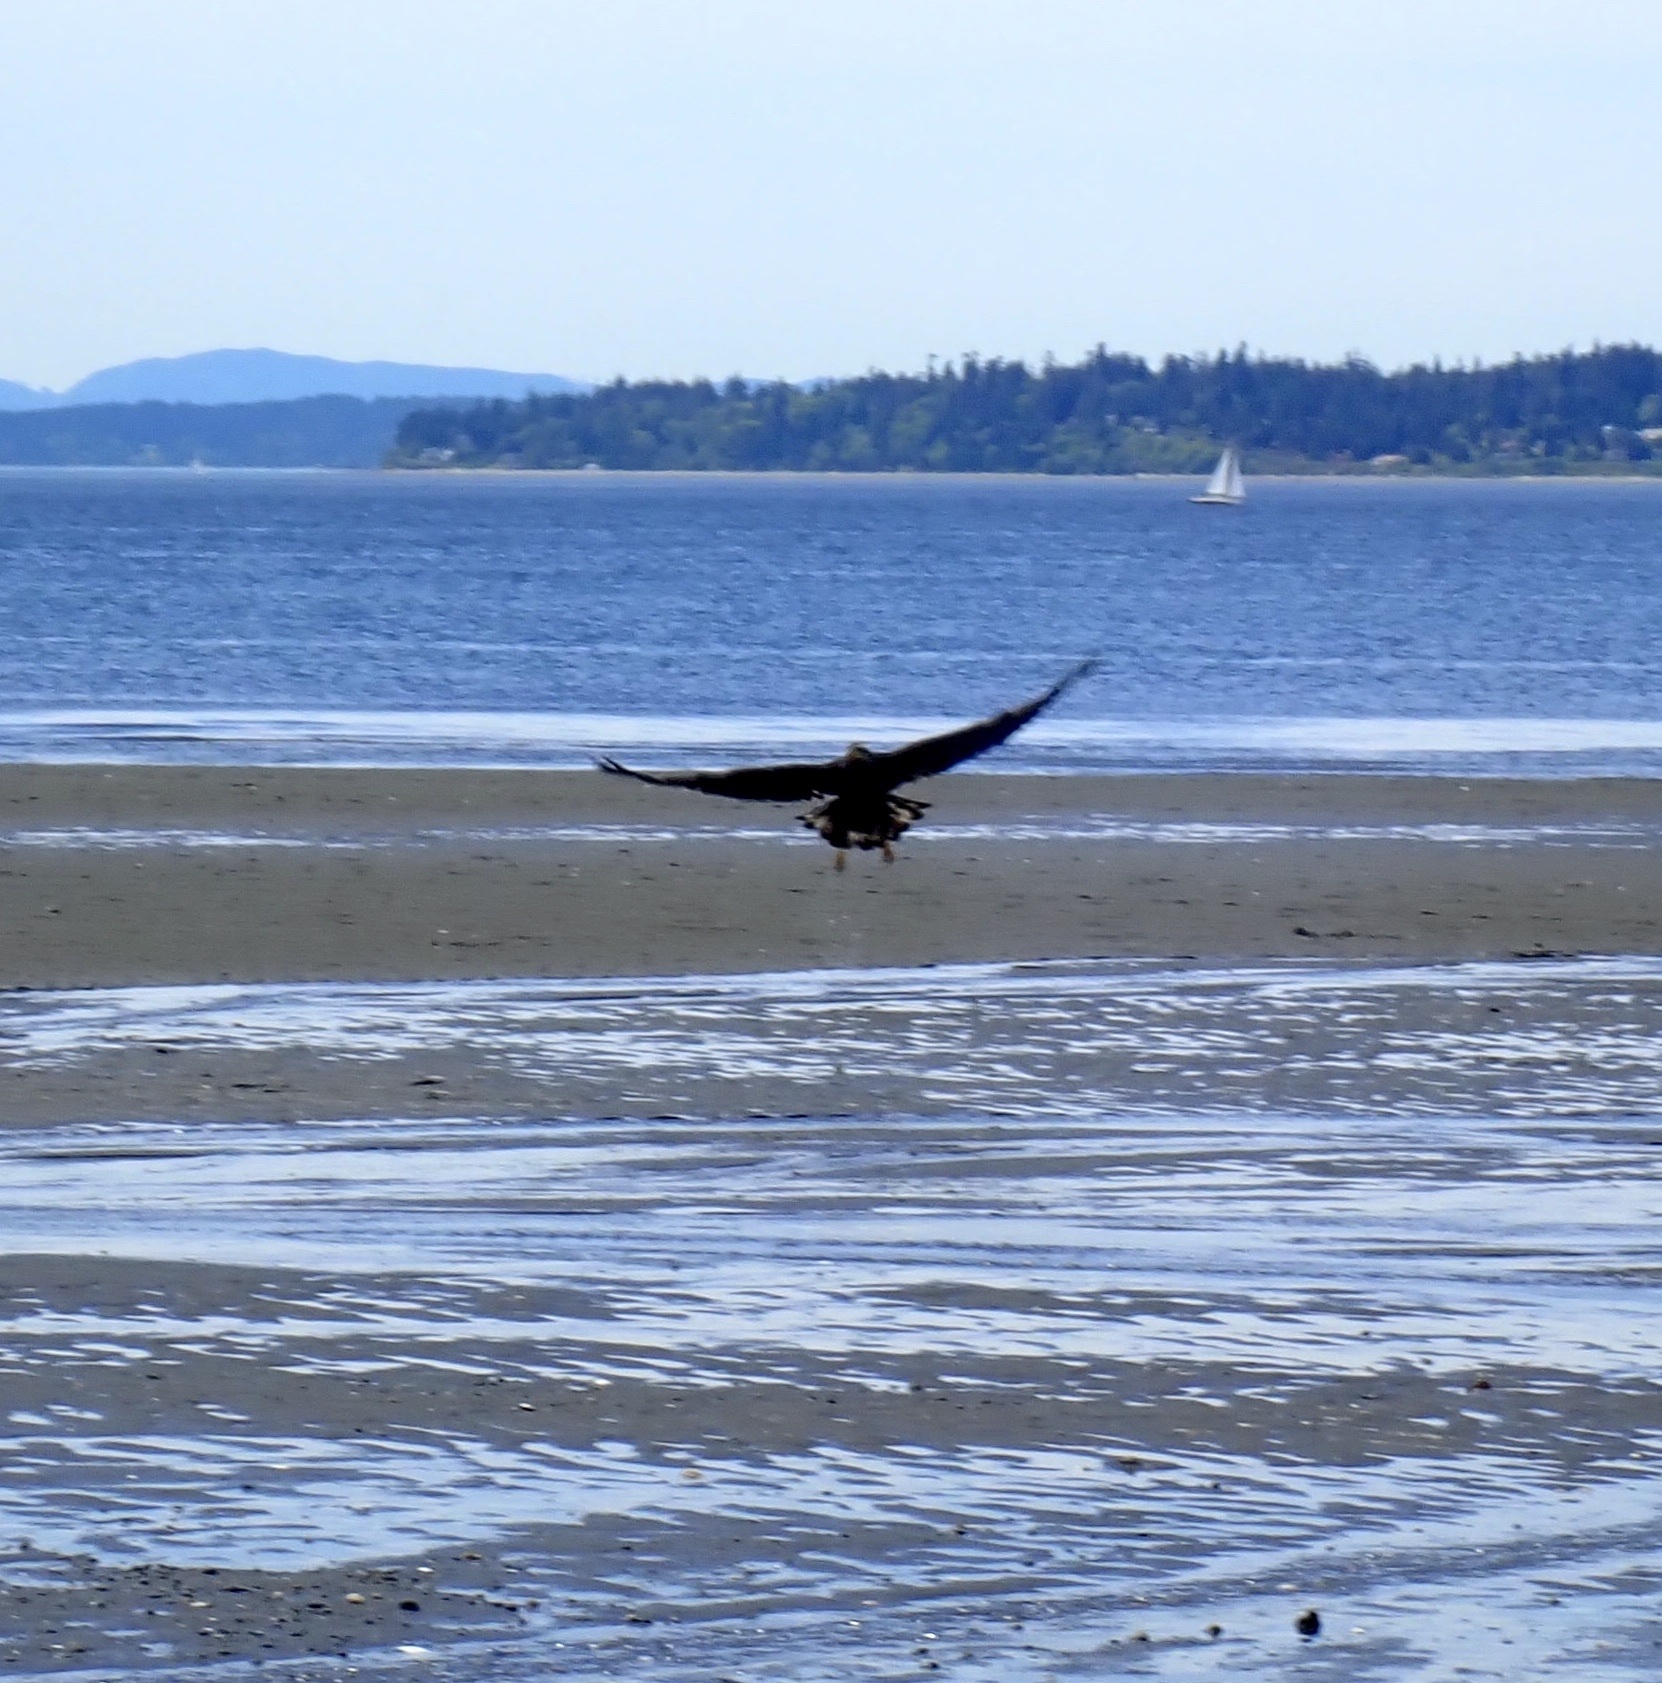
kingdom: Animalia
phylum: Chordata
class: Aves
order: Accipitriformes
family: Accipitridae
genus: Haliaeetus
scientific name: Haliaeetus leucocephalus
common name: Bald eagle
